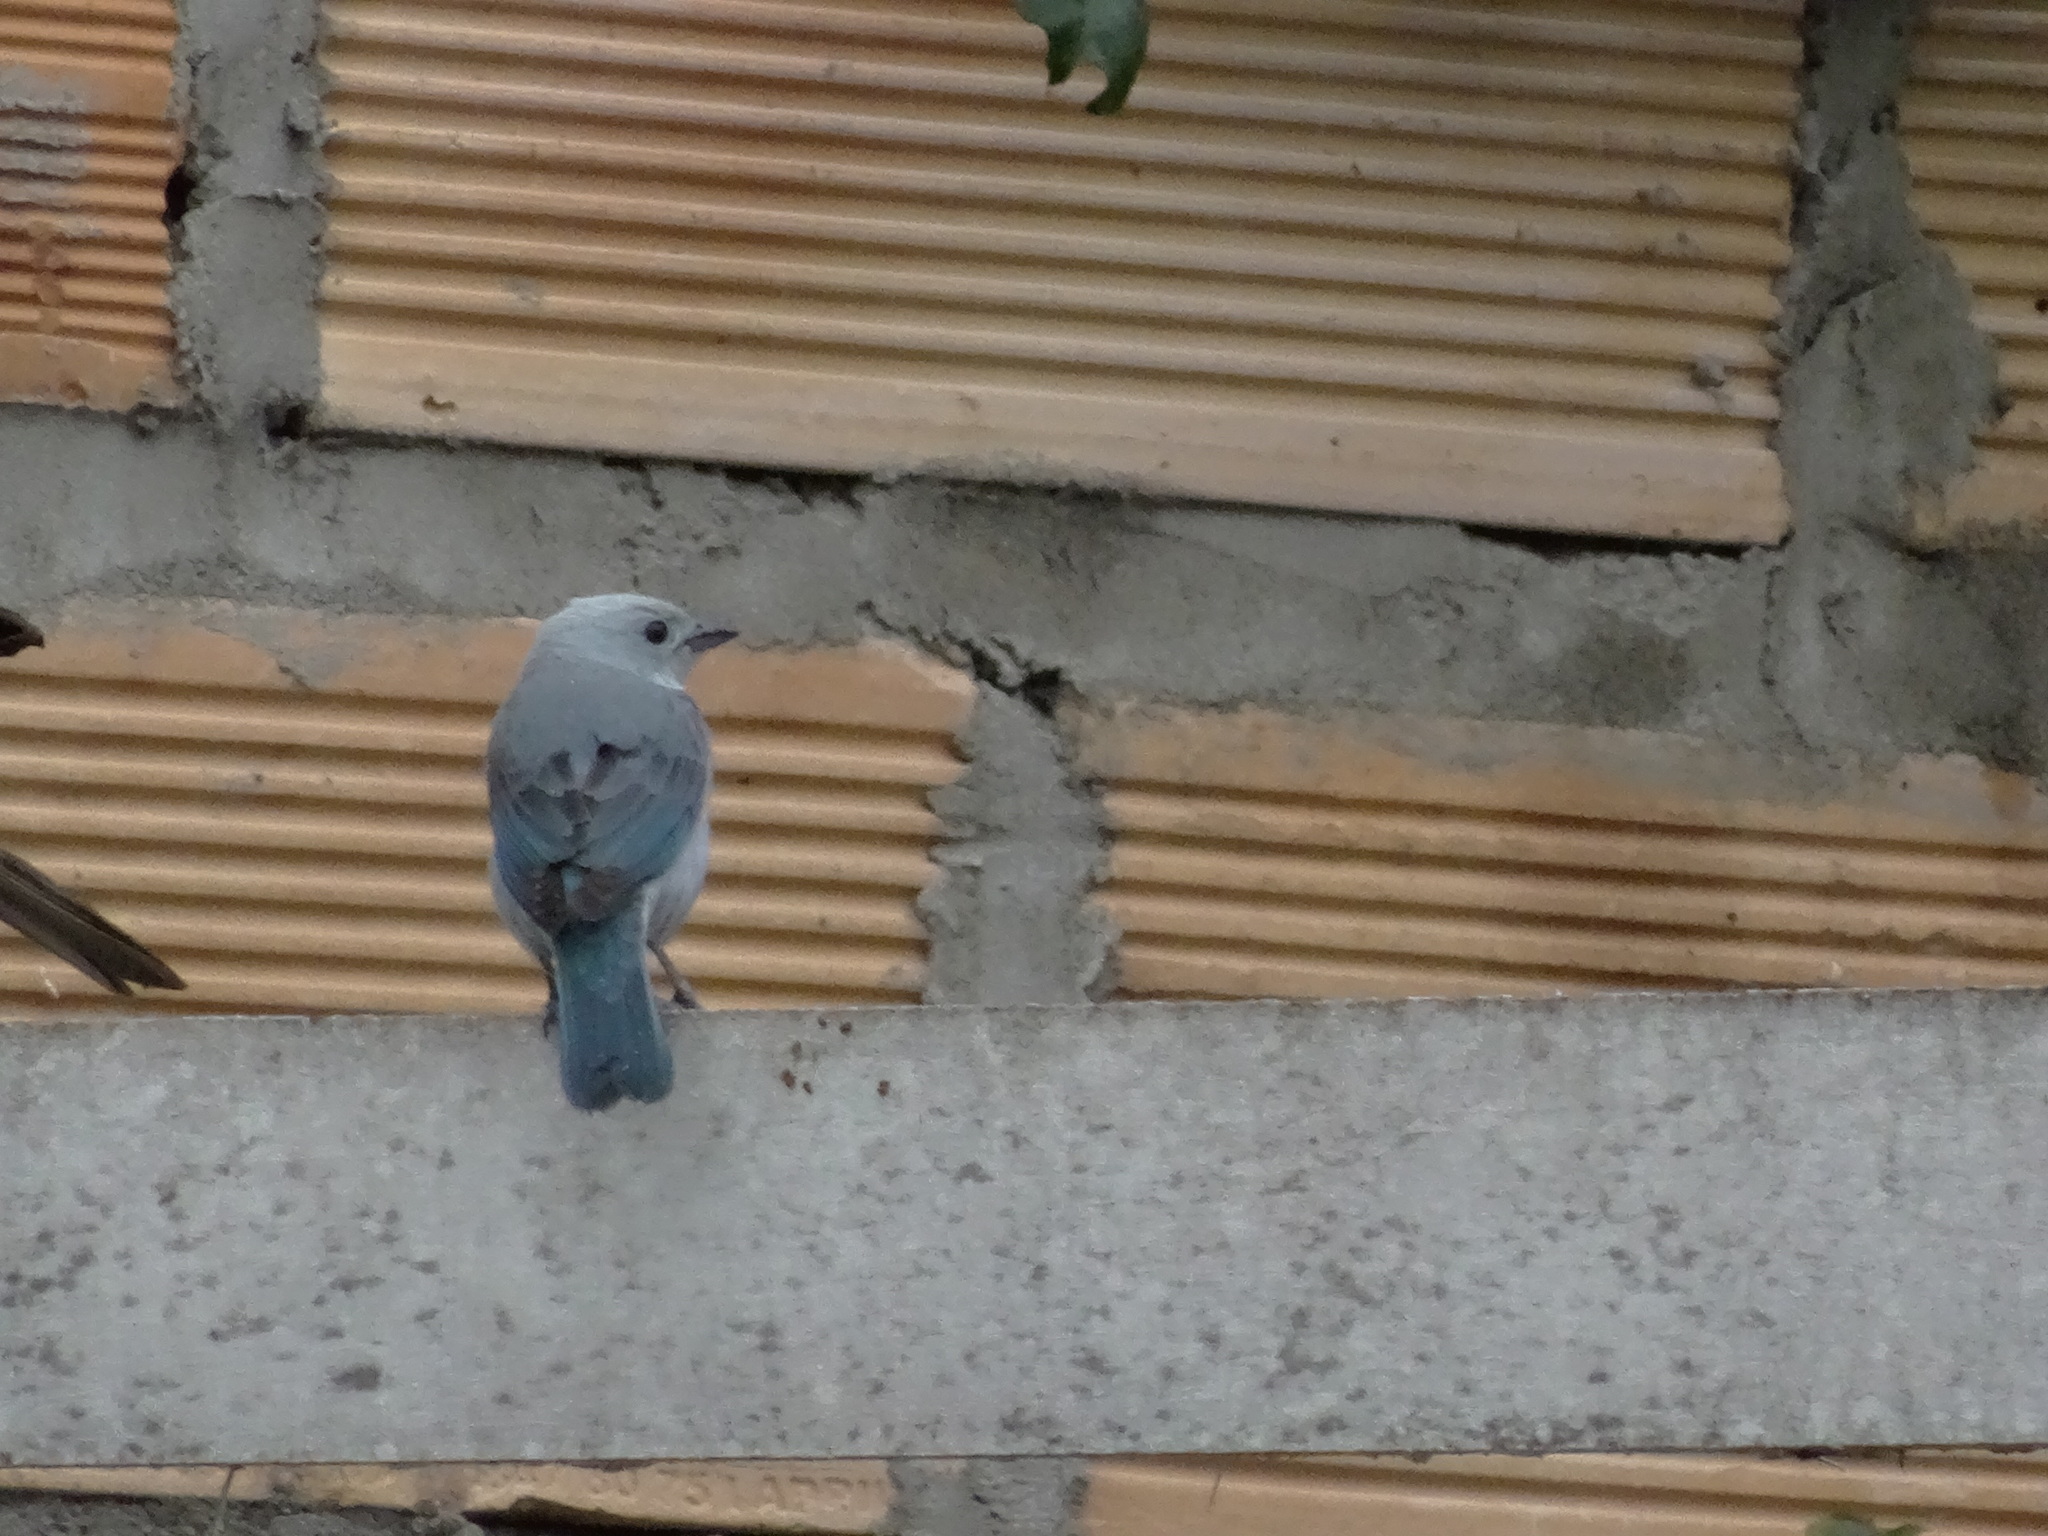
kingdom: Animalia
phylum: Chordata
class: Aves
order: Passeriformes
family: Thraupidae
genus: Thraupis
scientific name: Thraupis episcopus
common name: Blue-grey tanager
